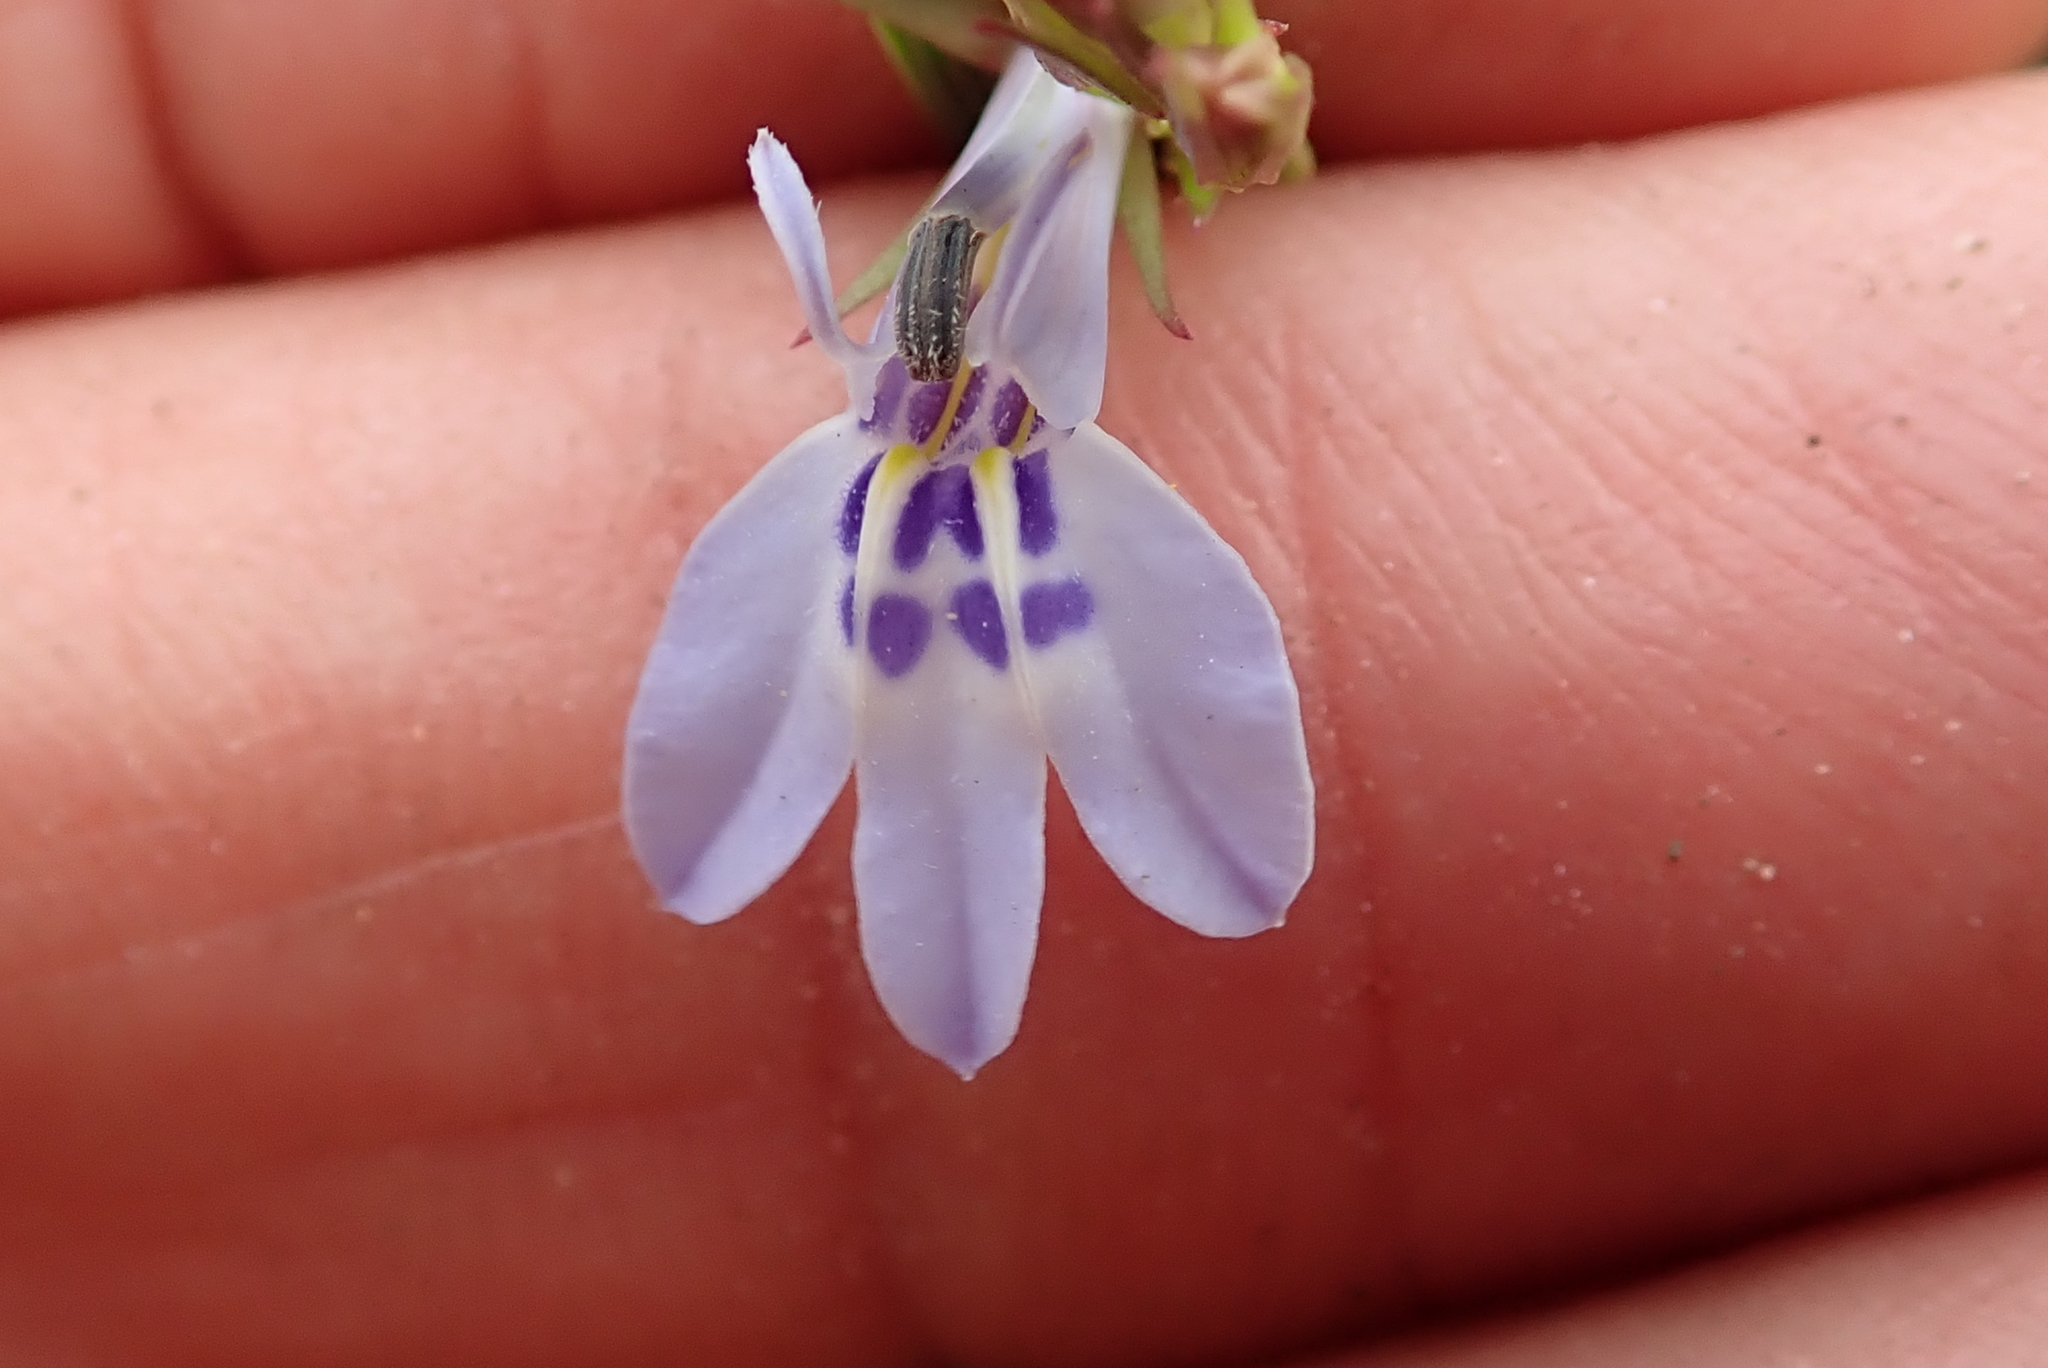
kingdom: Plantae
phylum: Tracheophyta
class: Magnoliopsida
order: Asterales
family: Campanulaceae
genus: Lobelia
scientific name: Lobelia flaccida
